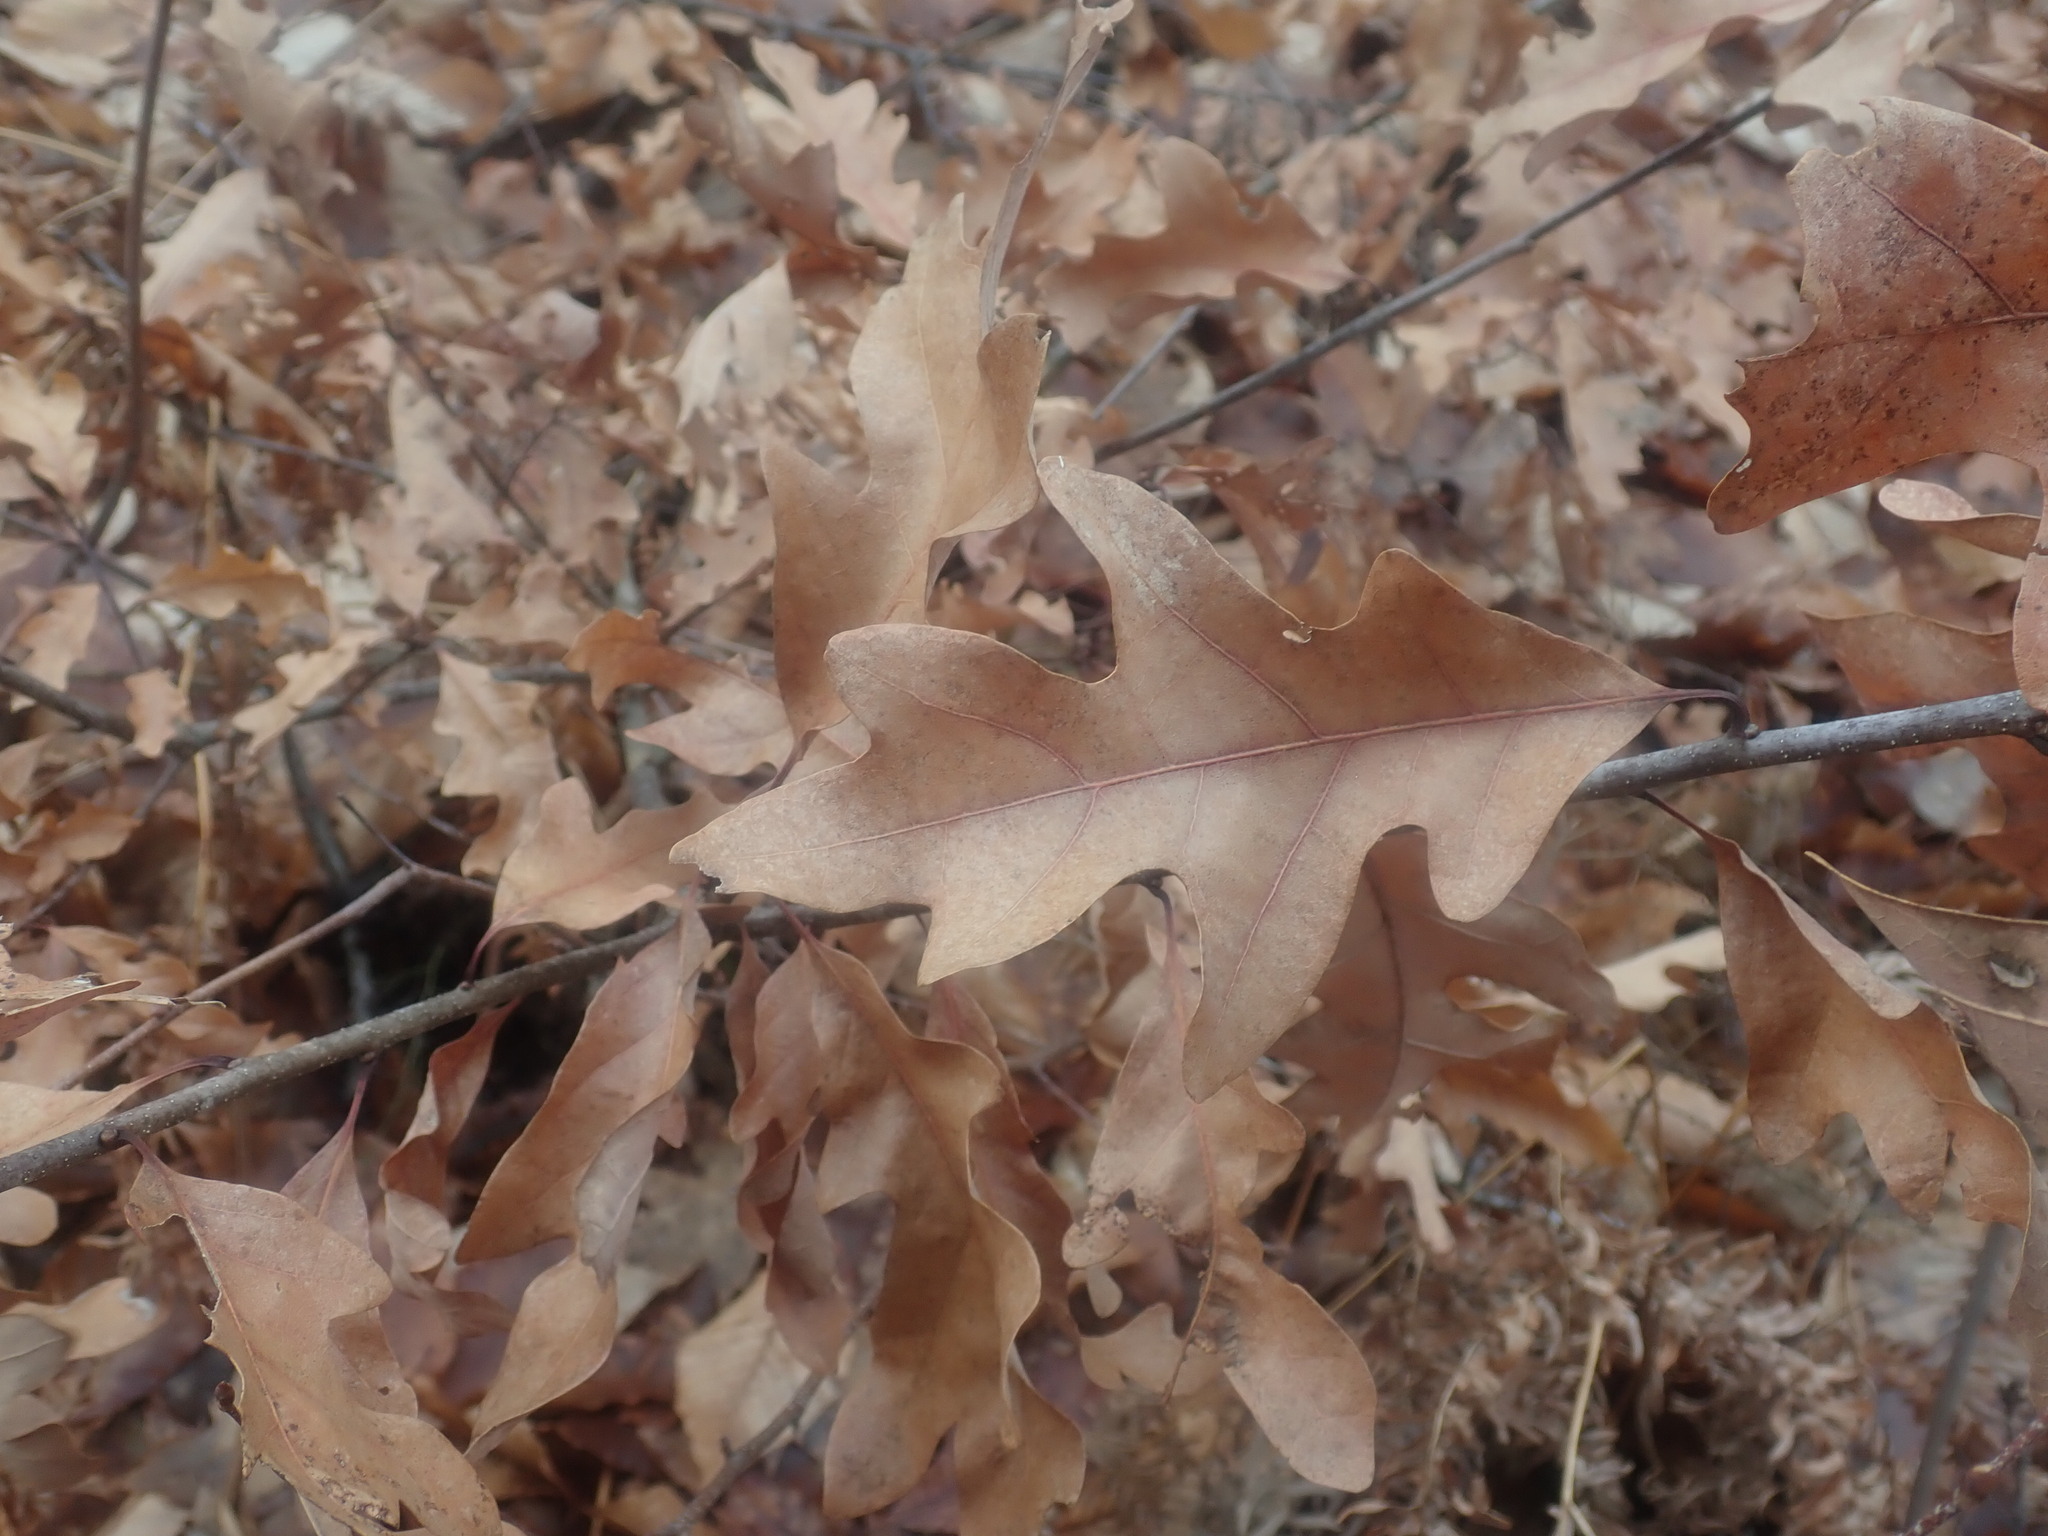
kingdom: Plantae
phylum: Tracheophyta
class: Magnoliopsida
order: Fagales
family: Fagaceae
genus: Quercus
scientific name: Quercus alba
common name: White oak
